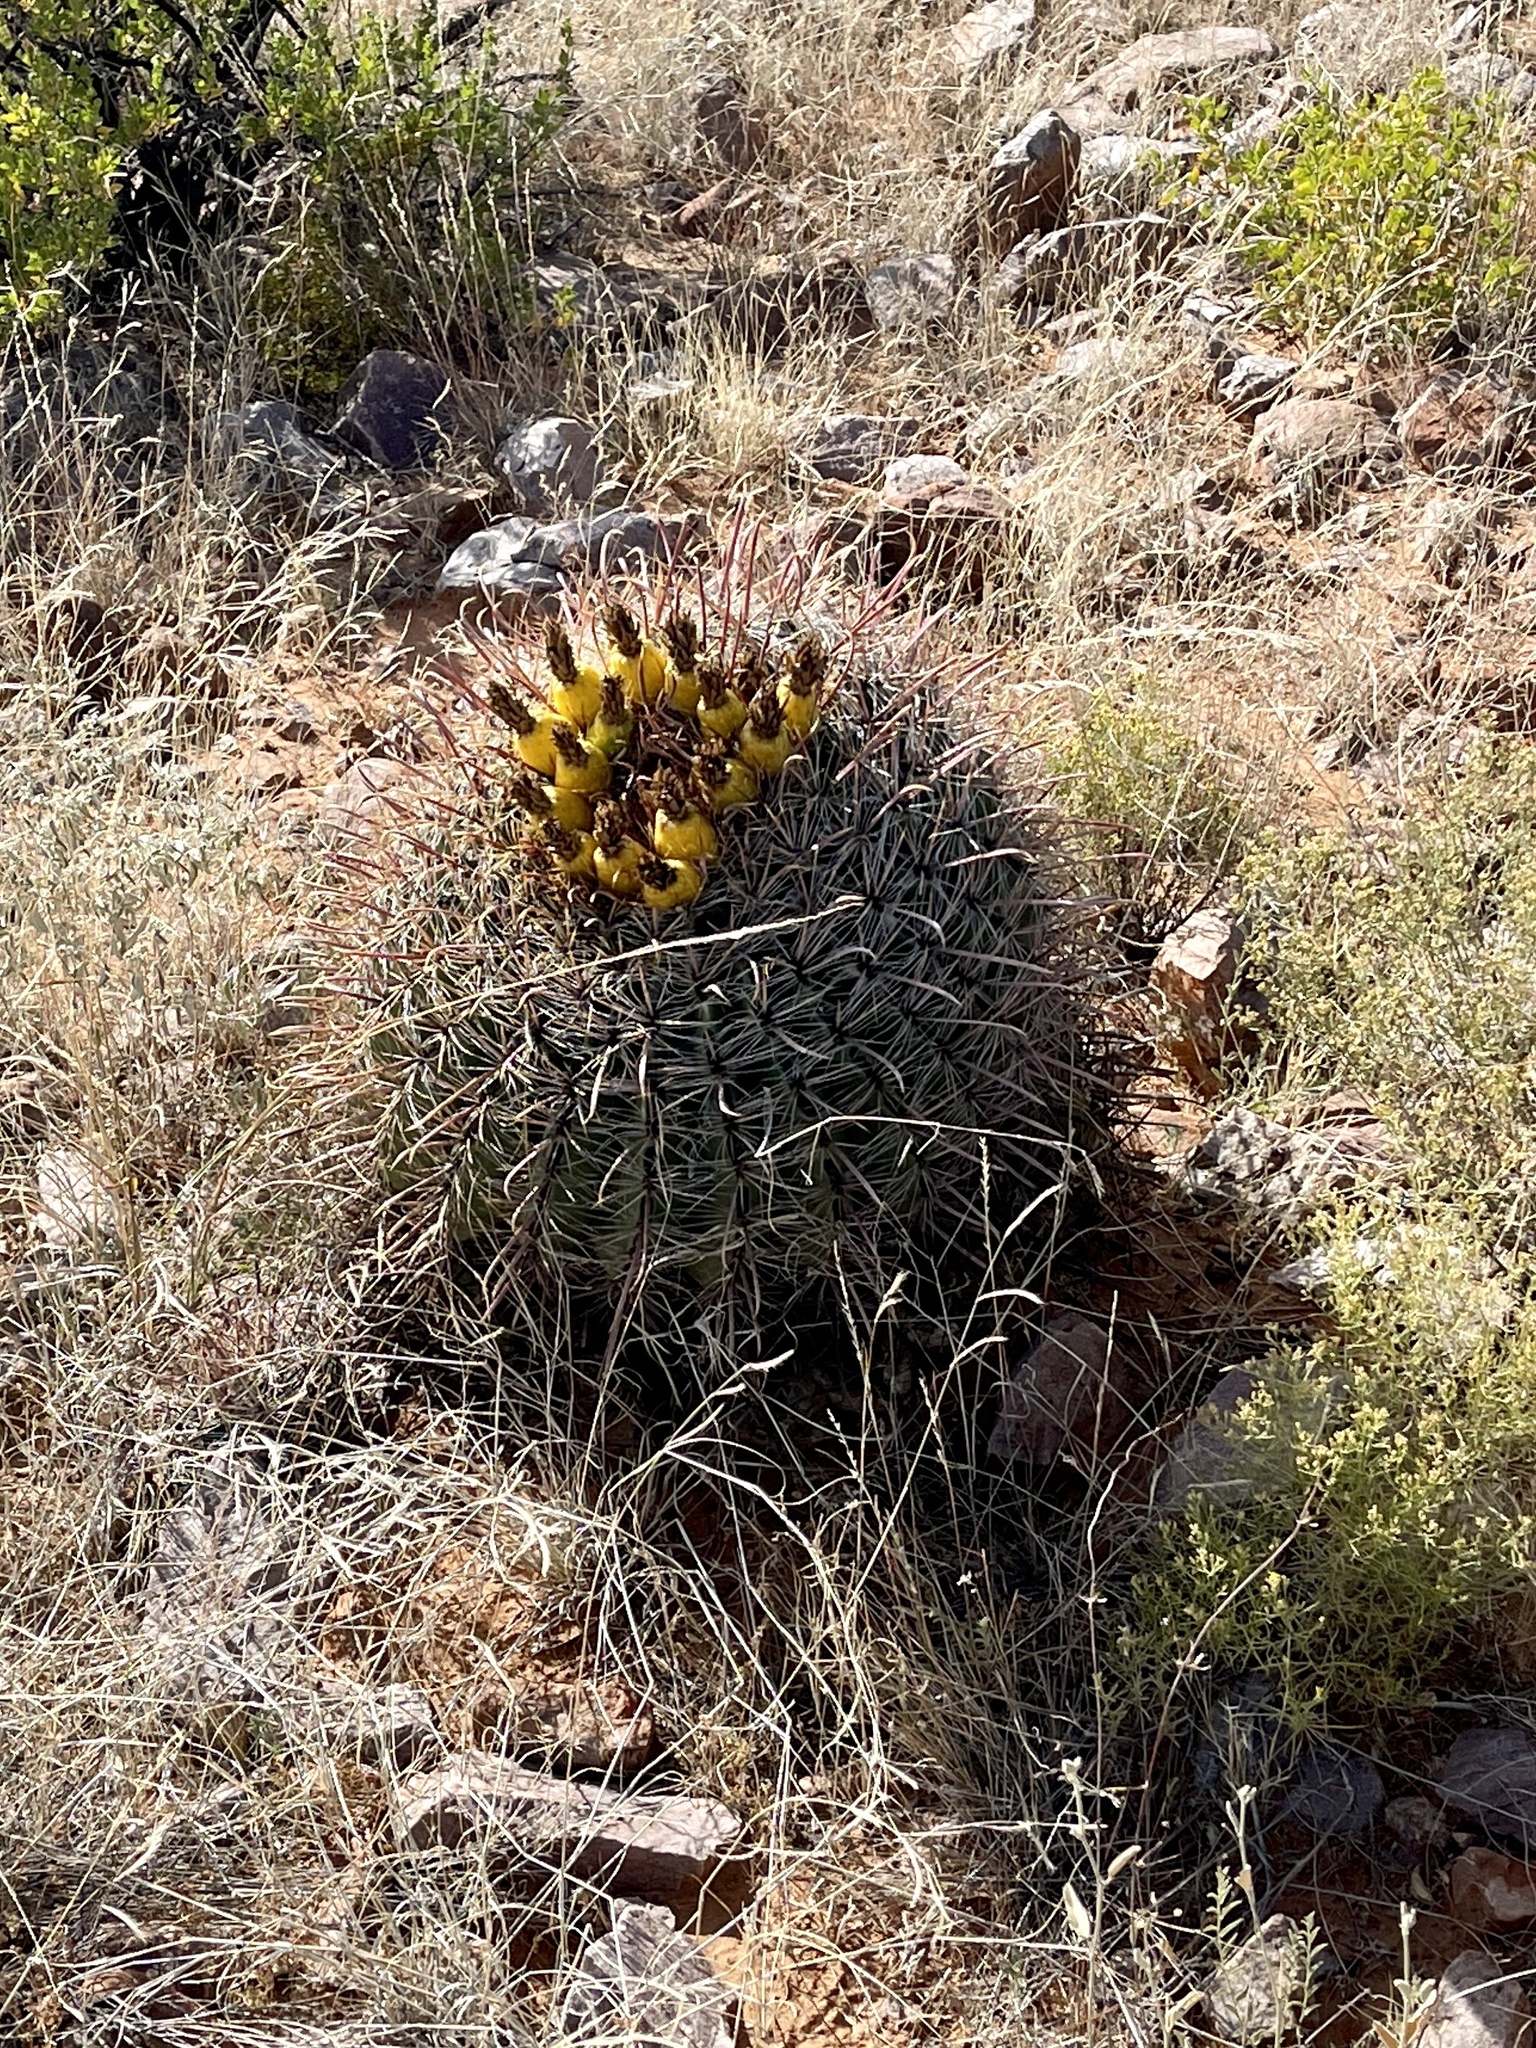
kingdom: Plantae
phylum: Tracheophyta
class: Magnoliopsida
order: Caryophyllales
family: Cactaceae
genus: Ferocactus
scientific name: Ferocactus wislizeni
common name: Candy barrel cactus
